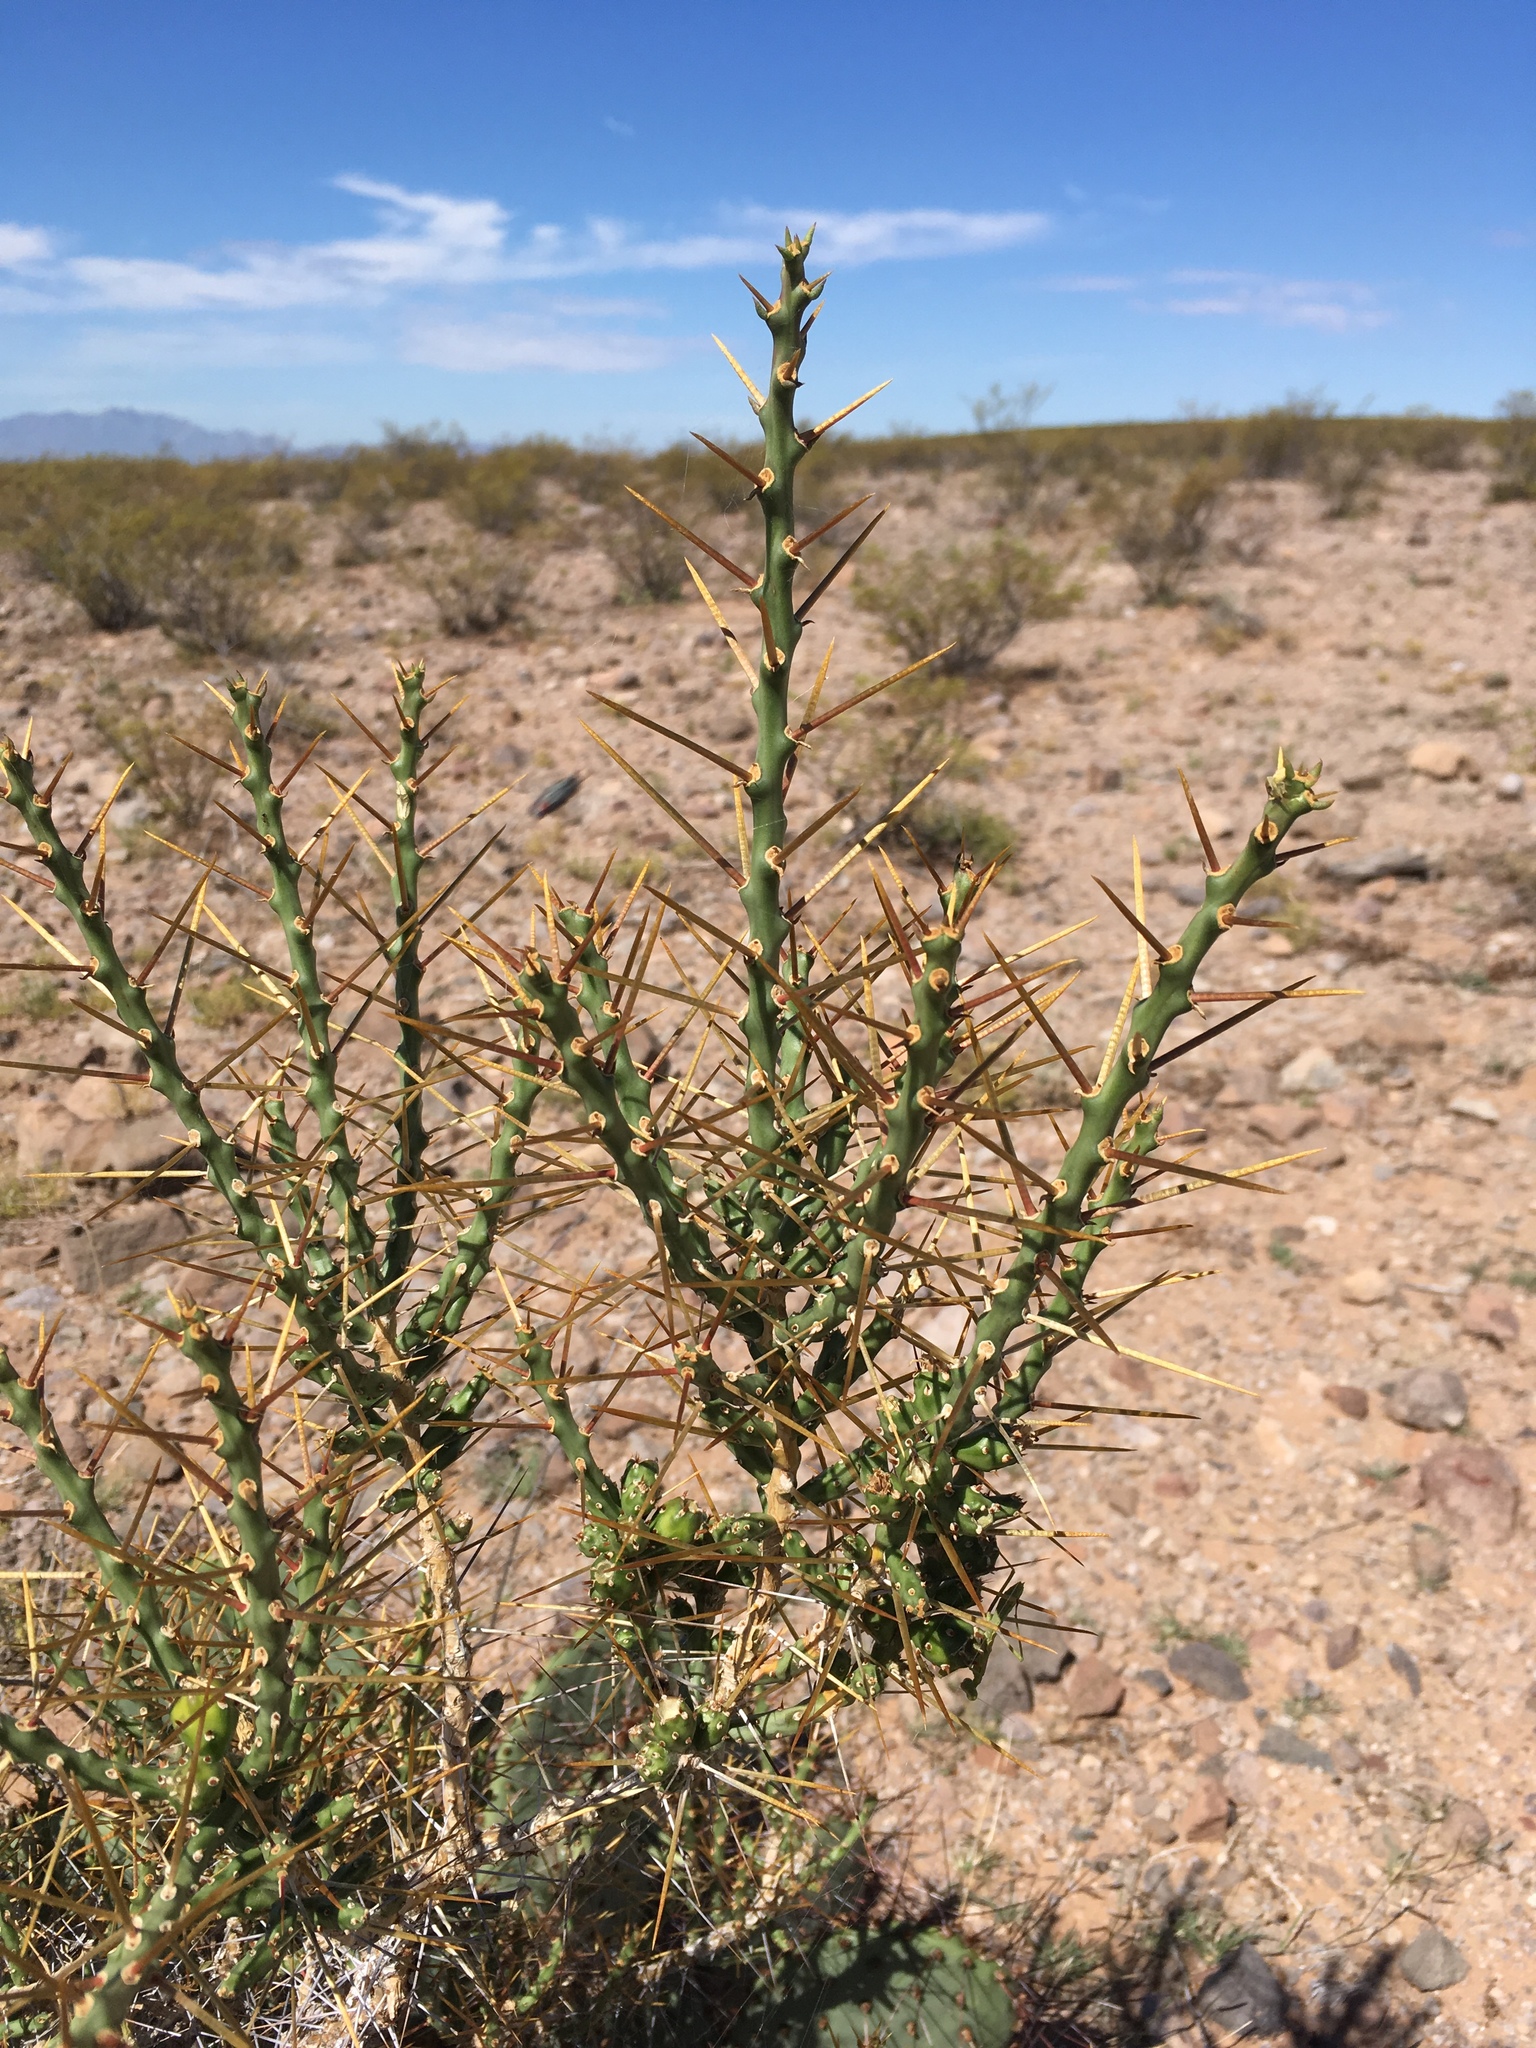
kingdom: Plantae
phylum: Tracheophyta
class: Magnoliopsida
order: Caryophyllales
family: Cactaceae
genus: Cylindropuntia
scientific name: Cylindropuntia leptocaulis
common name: Christmas cactus
